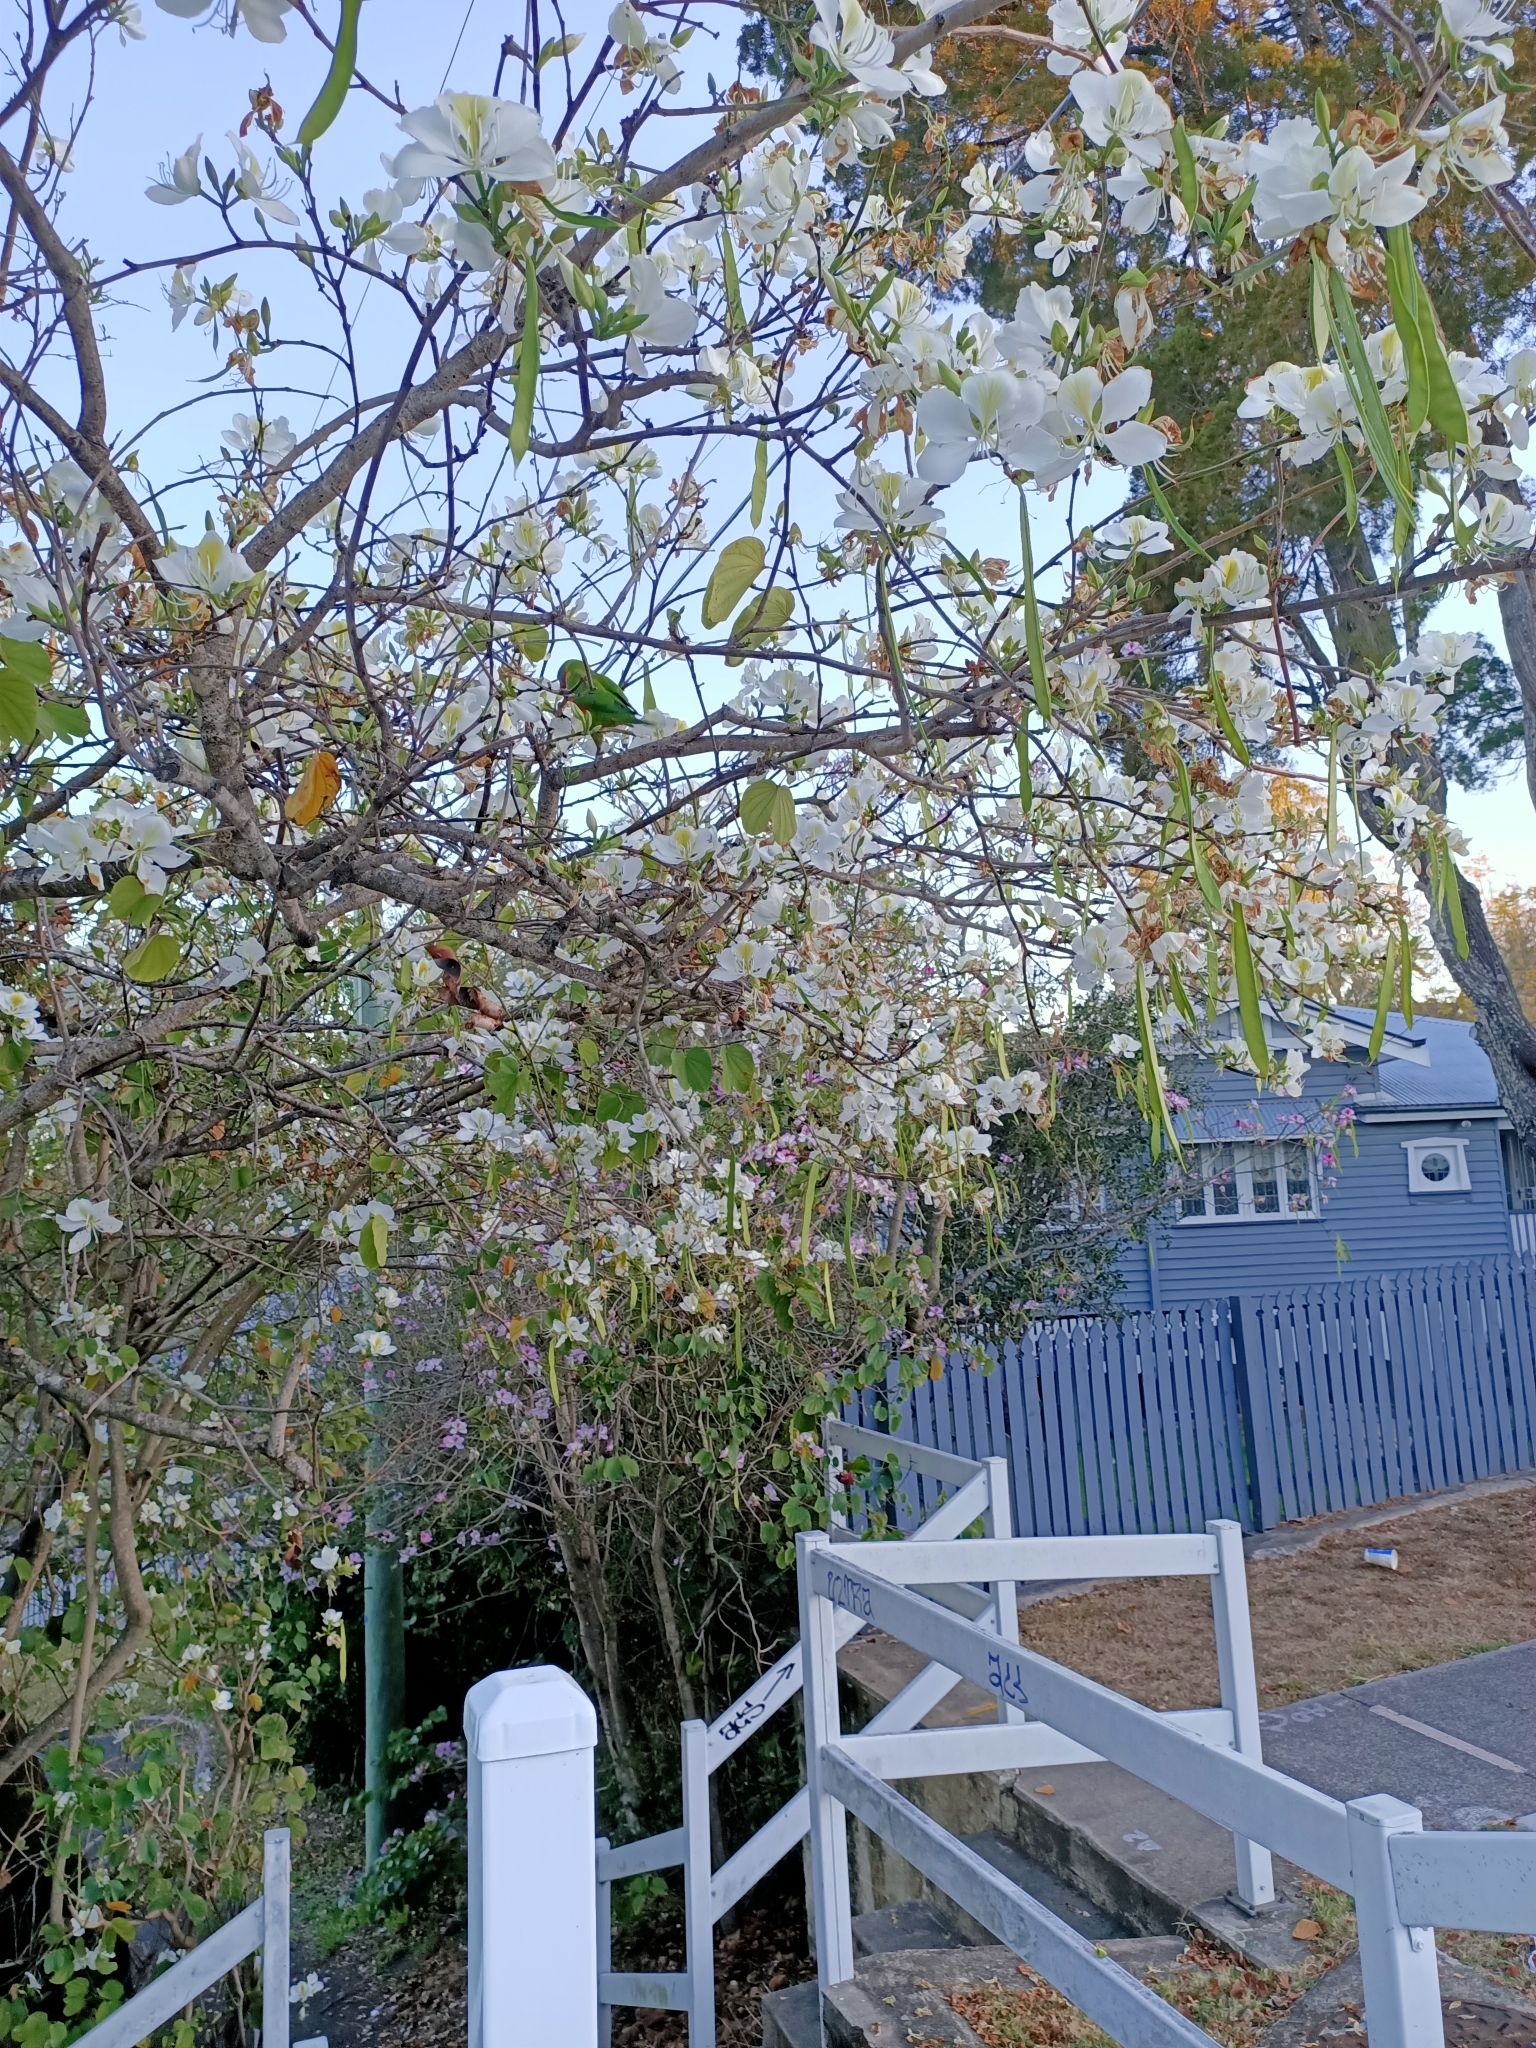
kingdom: Animalia
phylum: Chordata
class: Aves
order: Psittaciformes
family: Psittacidae
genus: Trichoglossus
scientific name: Trichoglossus haematodus
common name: Coconut lorikeet
